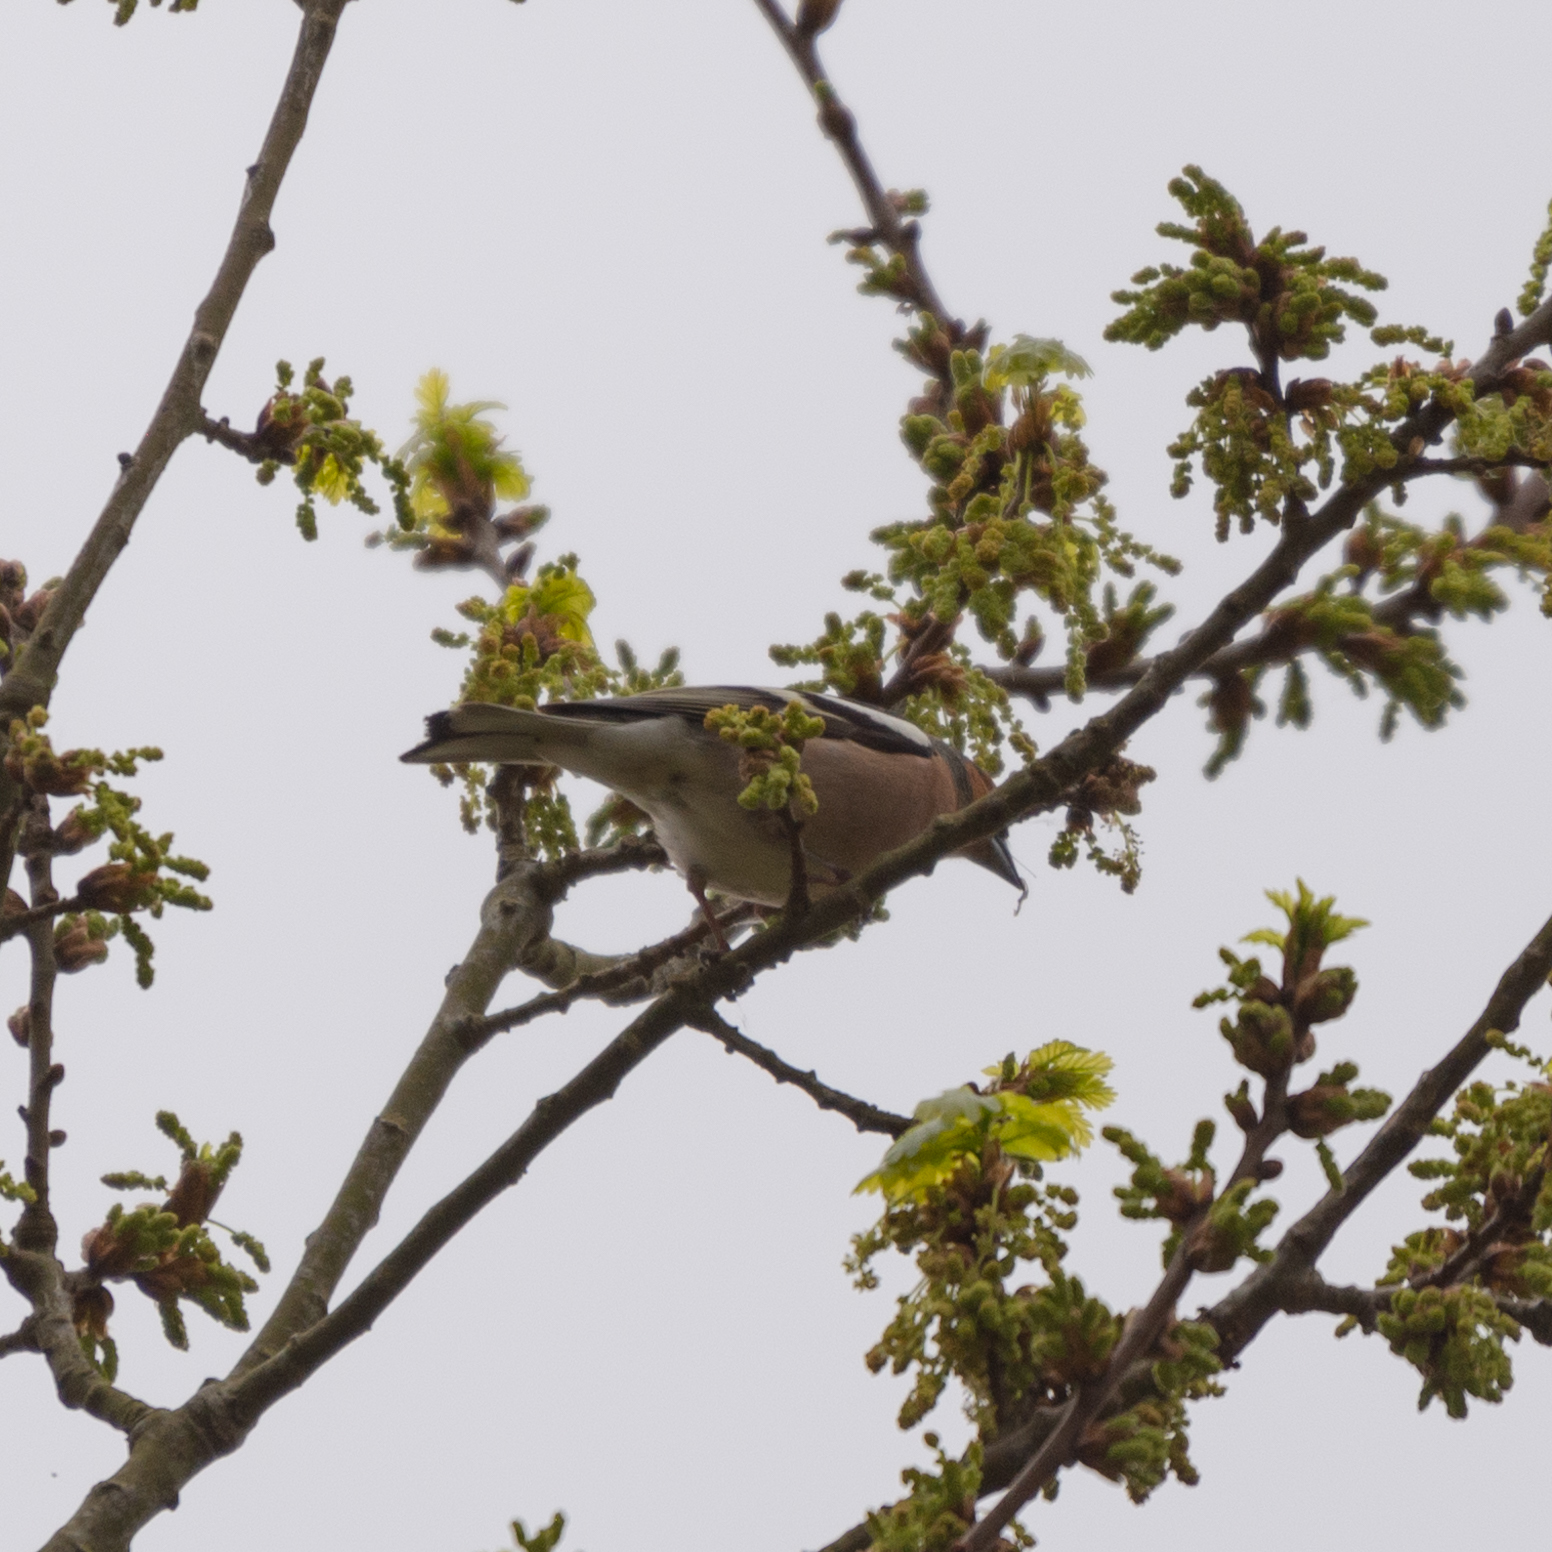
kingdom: Animalia
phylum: Chordata
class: Aves
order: Passeriformes
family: Fringillidae
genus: Fringilla
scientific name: Fringilla coelebs
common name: Common chaffinch
